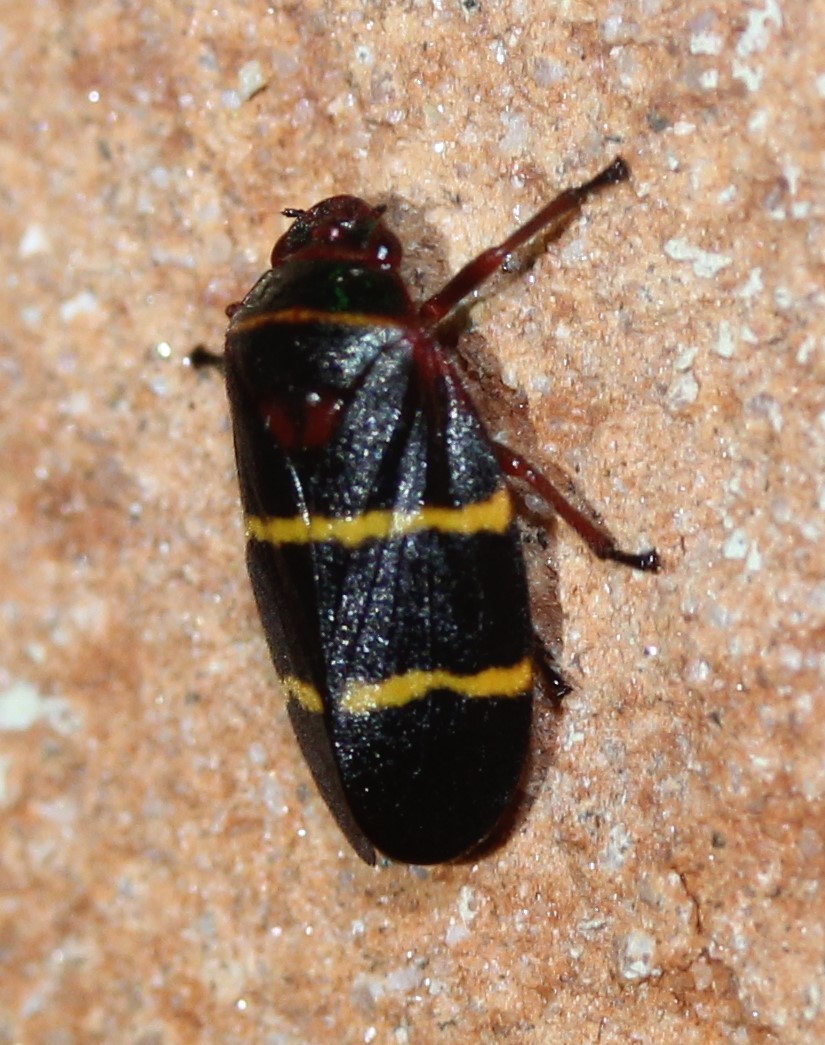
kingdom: Animalia
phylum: Arthropoda
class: Insecta
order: Hemiptera
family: Cercopidae
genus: Prosapia
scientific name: Prosapia bicincta
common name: Twolined spittlebug
